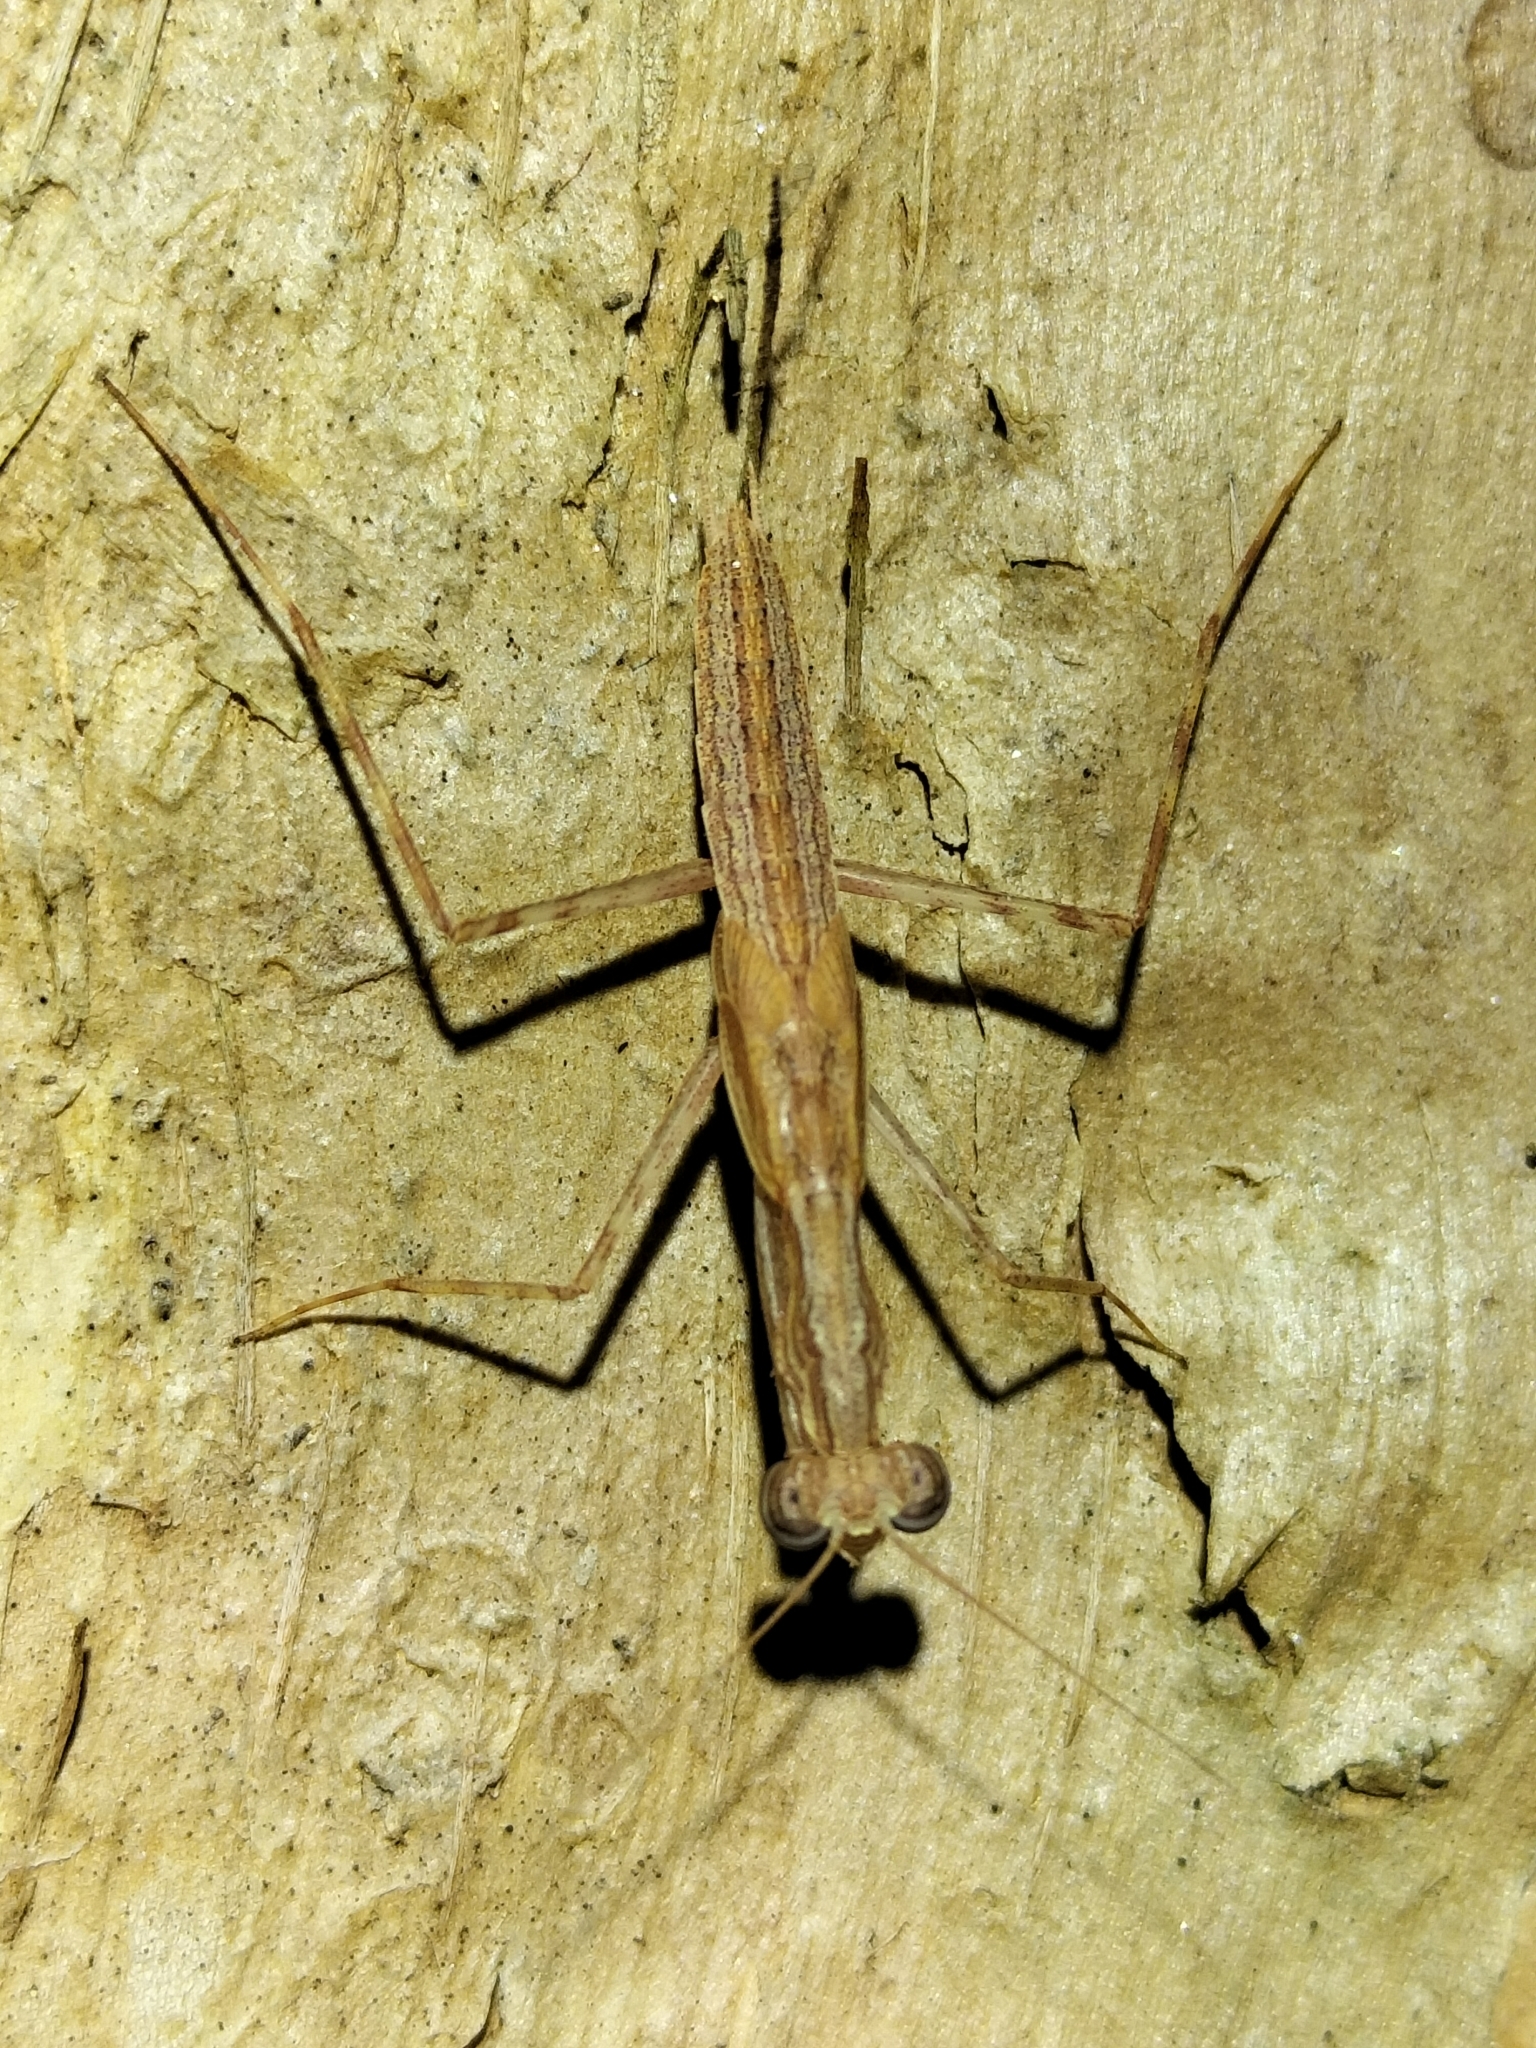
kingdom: Animalia
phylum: Arthropoda
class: Insecta
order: Mantodea
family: Nanomantidae
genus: Ima
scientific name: Ima fusca
